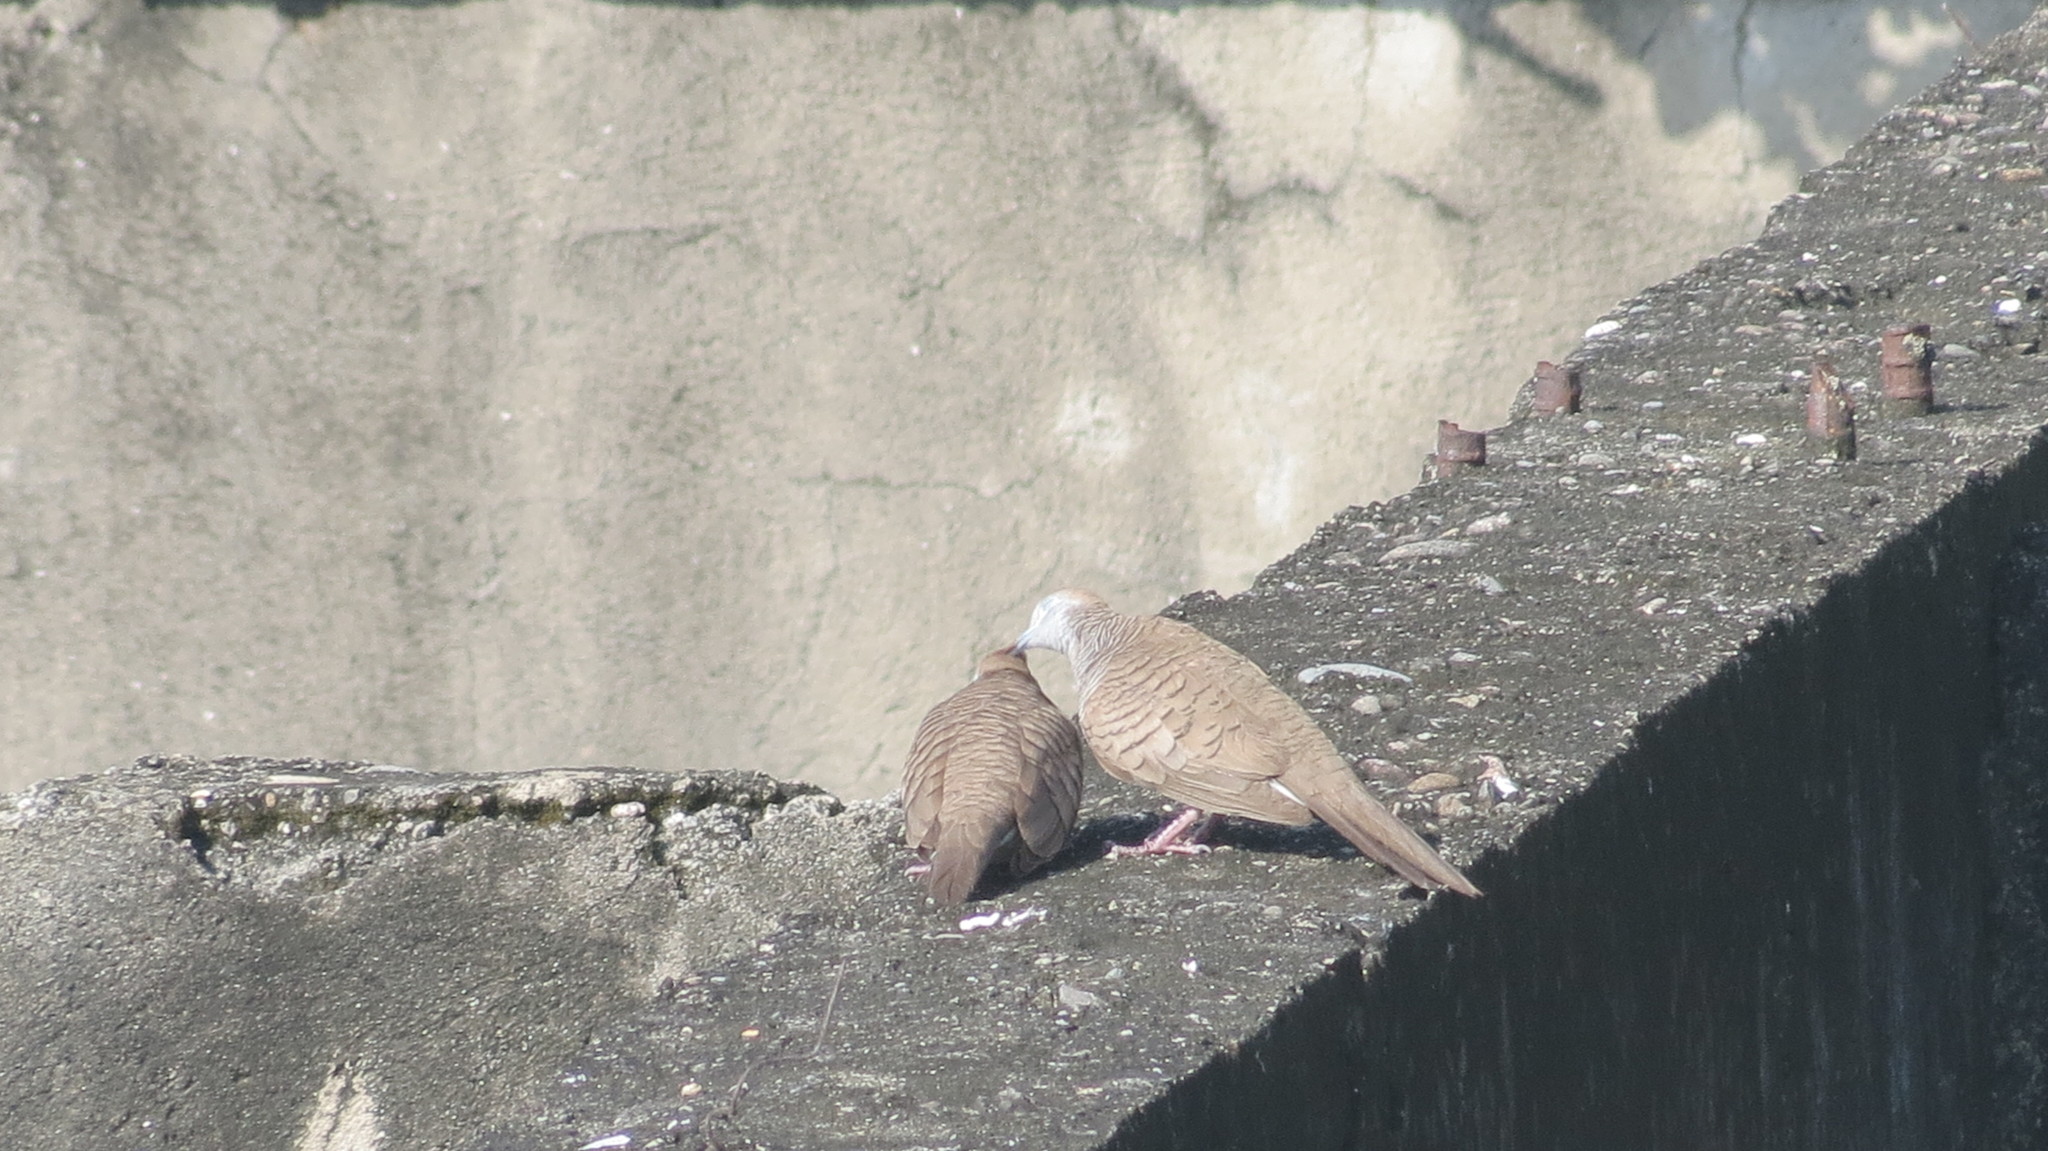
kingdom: Animalia
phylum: Chordata
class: Aves
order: Columbiformes
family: Columbidae
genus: Geopelia
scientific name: Geopelia striata
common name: Zebra dove
